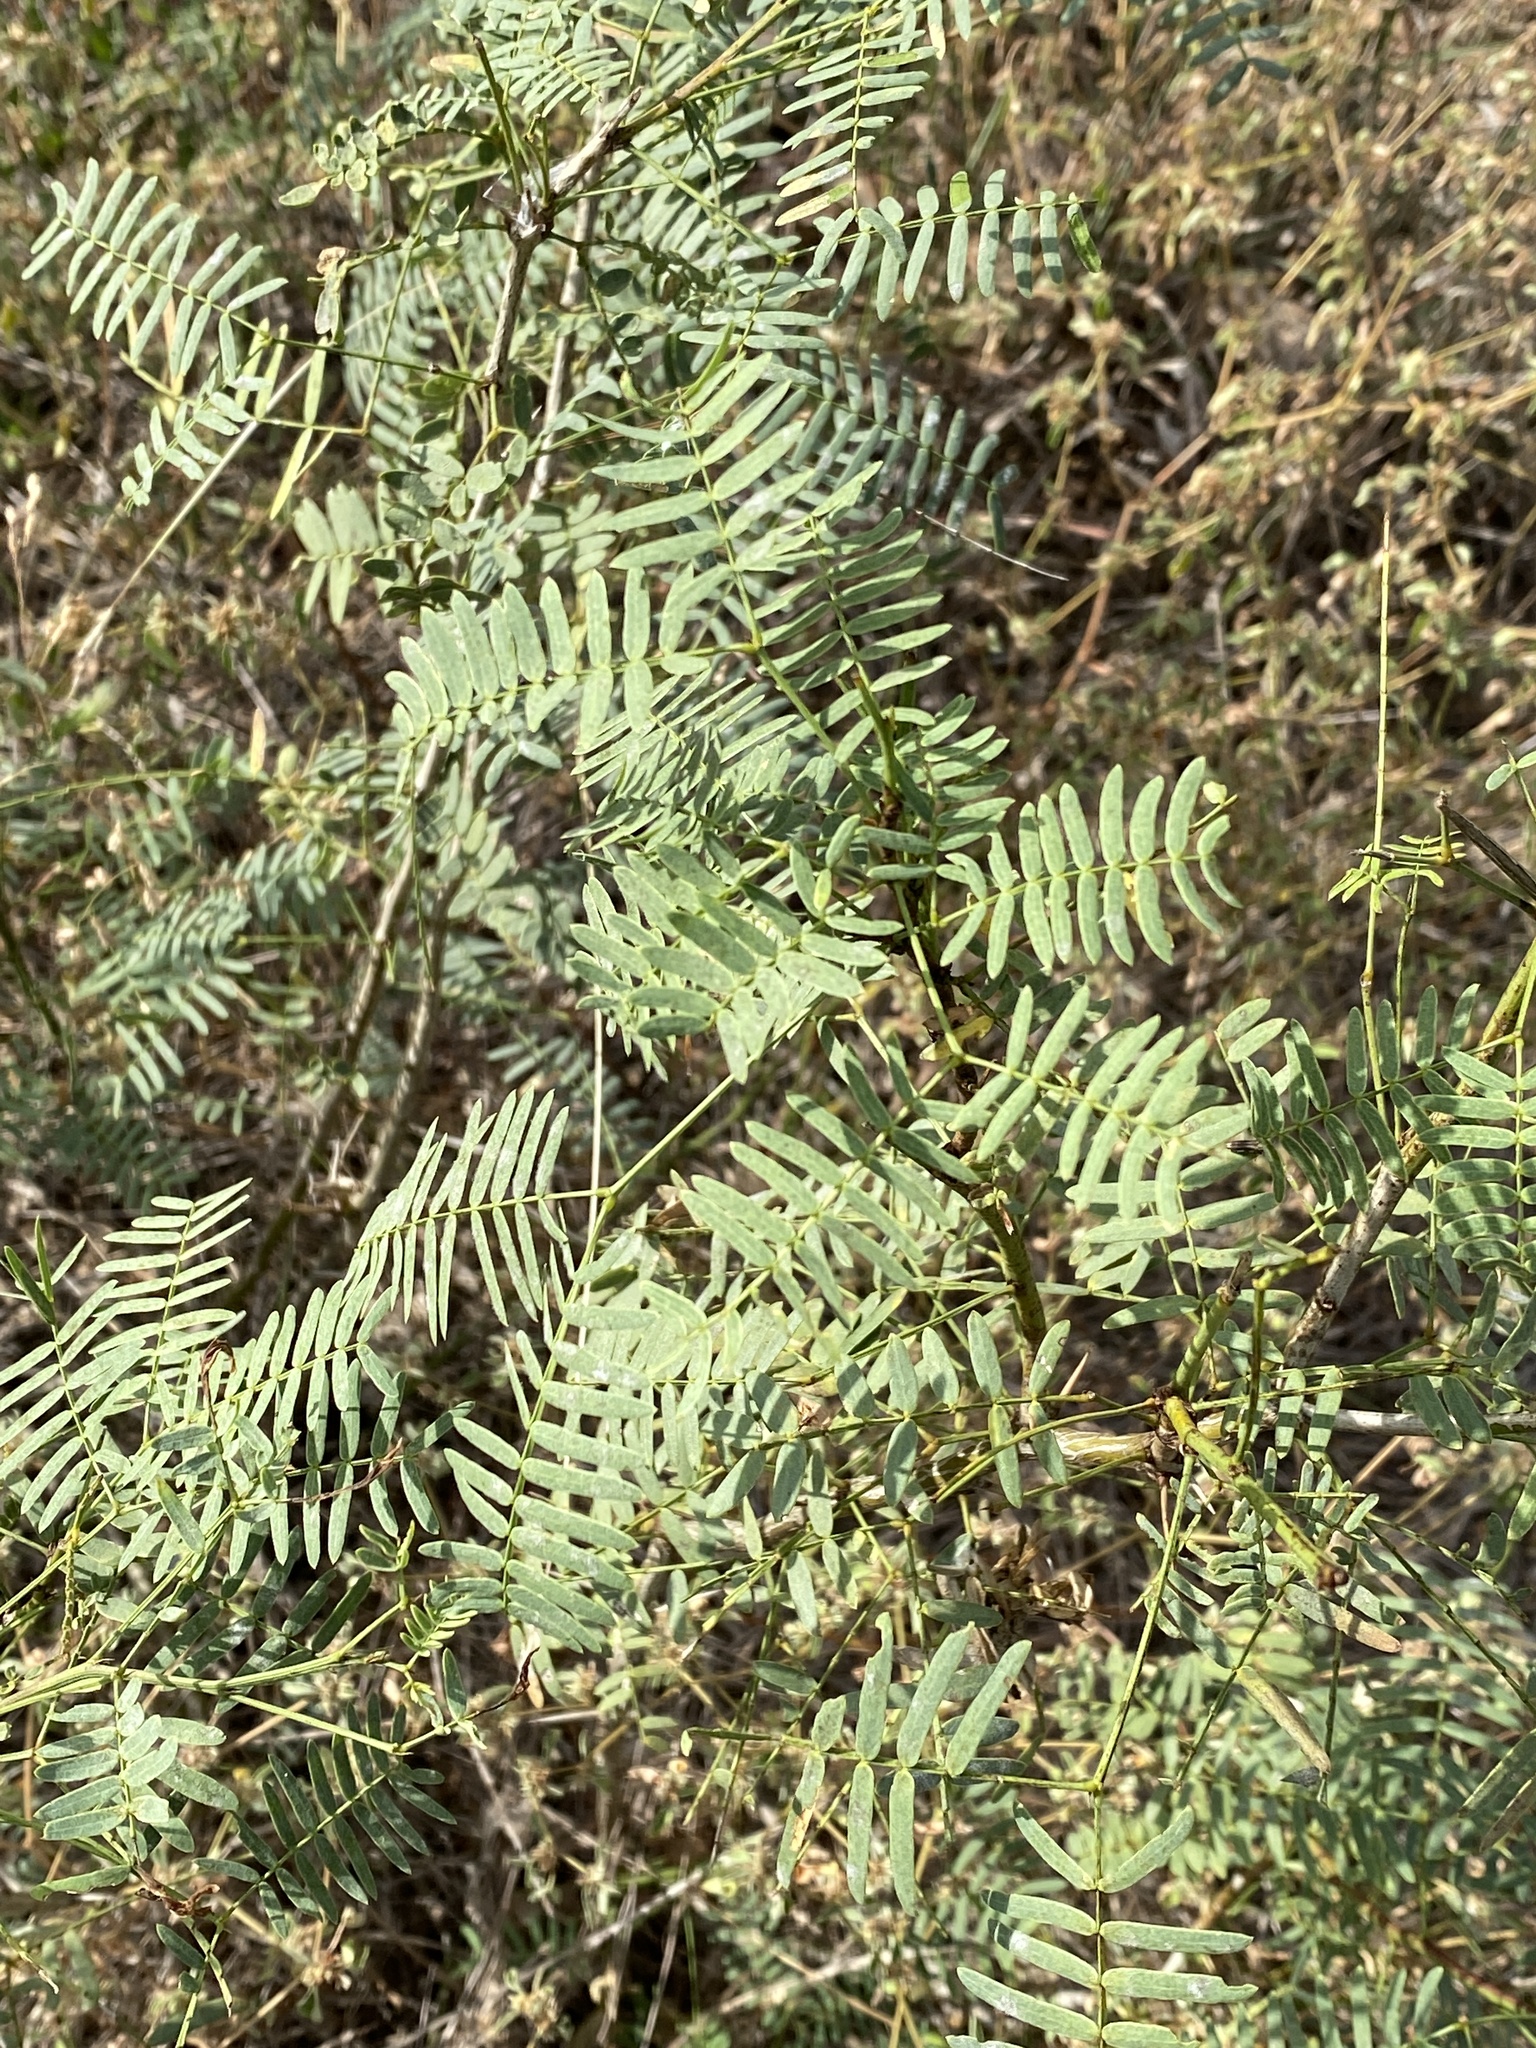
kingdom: Plantae
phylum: Tracheophyta
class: Magnoliopsida
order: Fabales
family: Fabaceae
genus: Prosopis
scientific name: Prosopis glandulosa
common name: Honey mesquite
